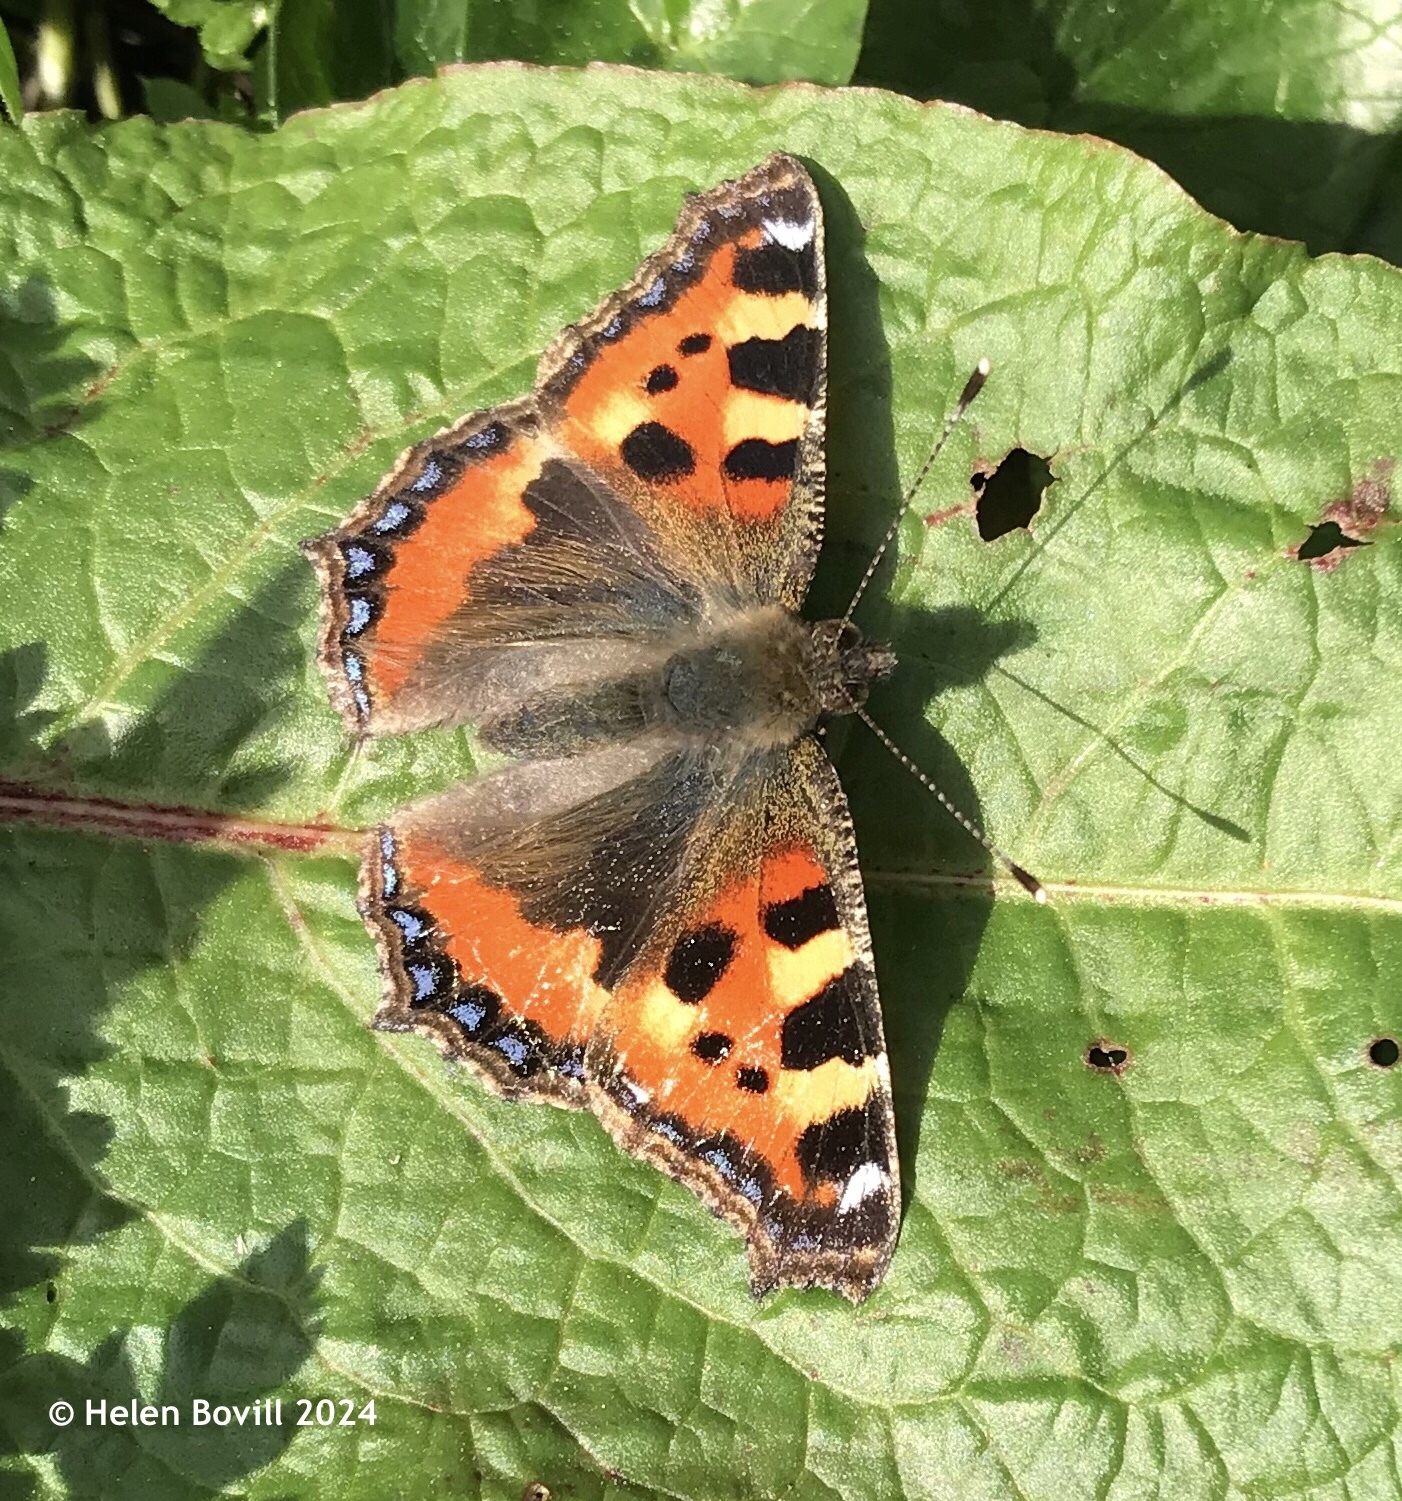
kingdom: Animalia
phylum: Arthropoda
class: Insecta
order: Lepidoptera
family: Nymphalidae
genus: Aglais
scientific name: Aglais urticae
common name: Small tortoiseshell
